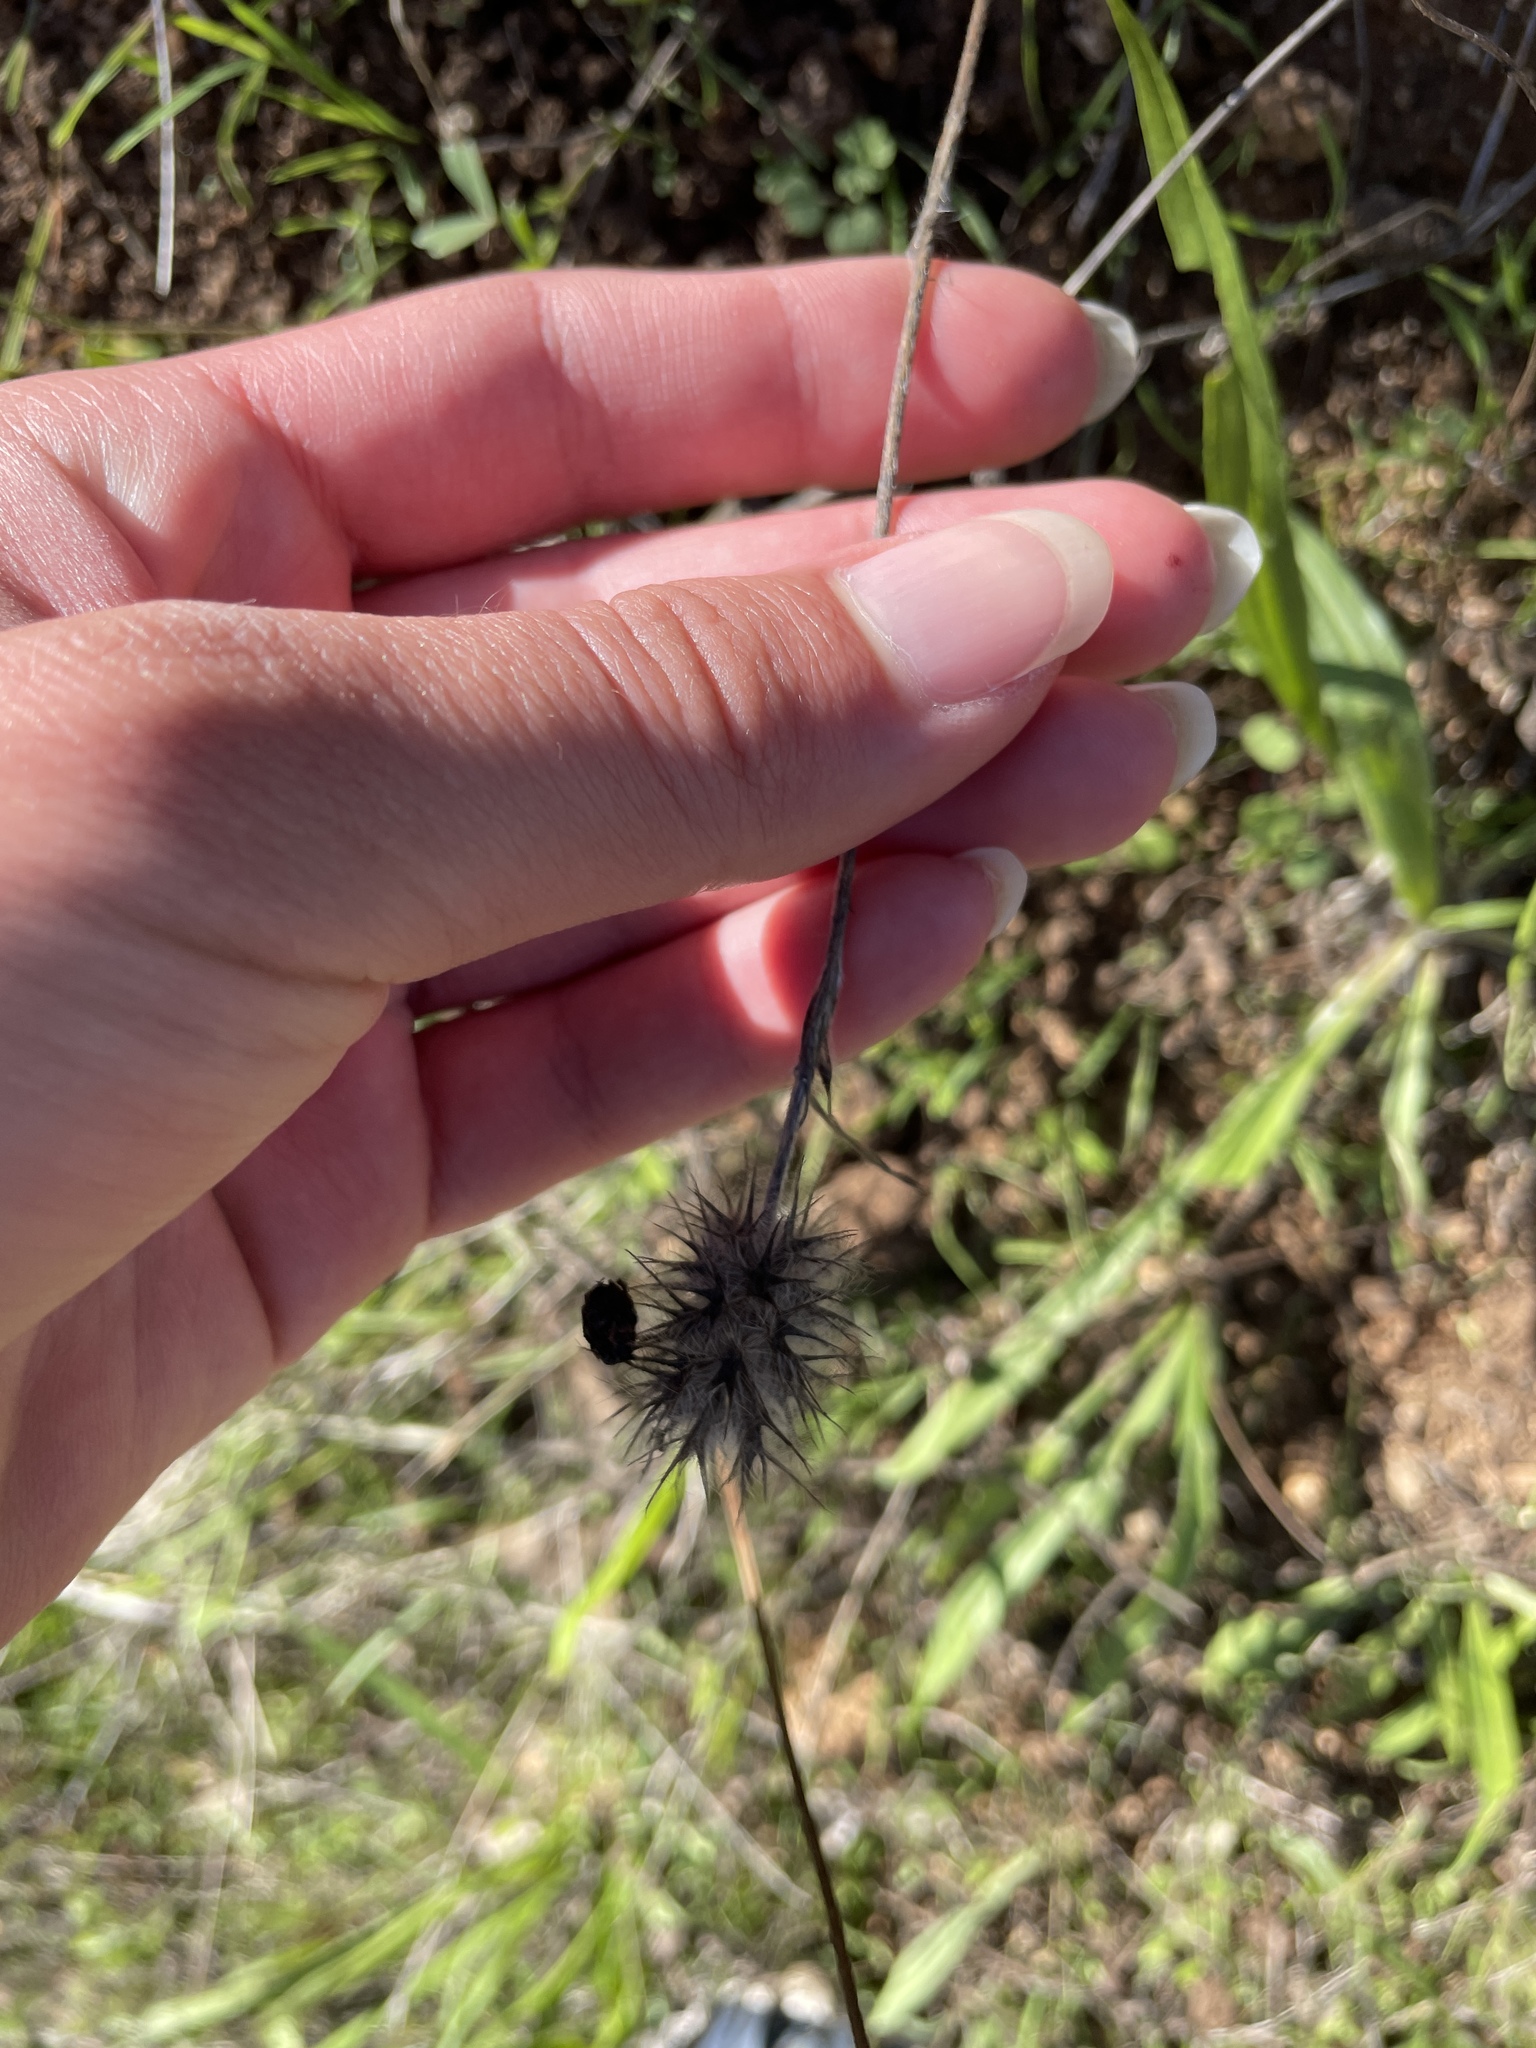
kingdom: Plantae
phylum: Tracheophyta
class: Magnoliopsida
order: Fabales
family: Fabaceae
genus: Trifolium
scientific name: Trifolium angustifolium
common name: Narrow clover
